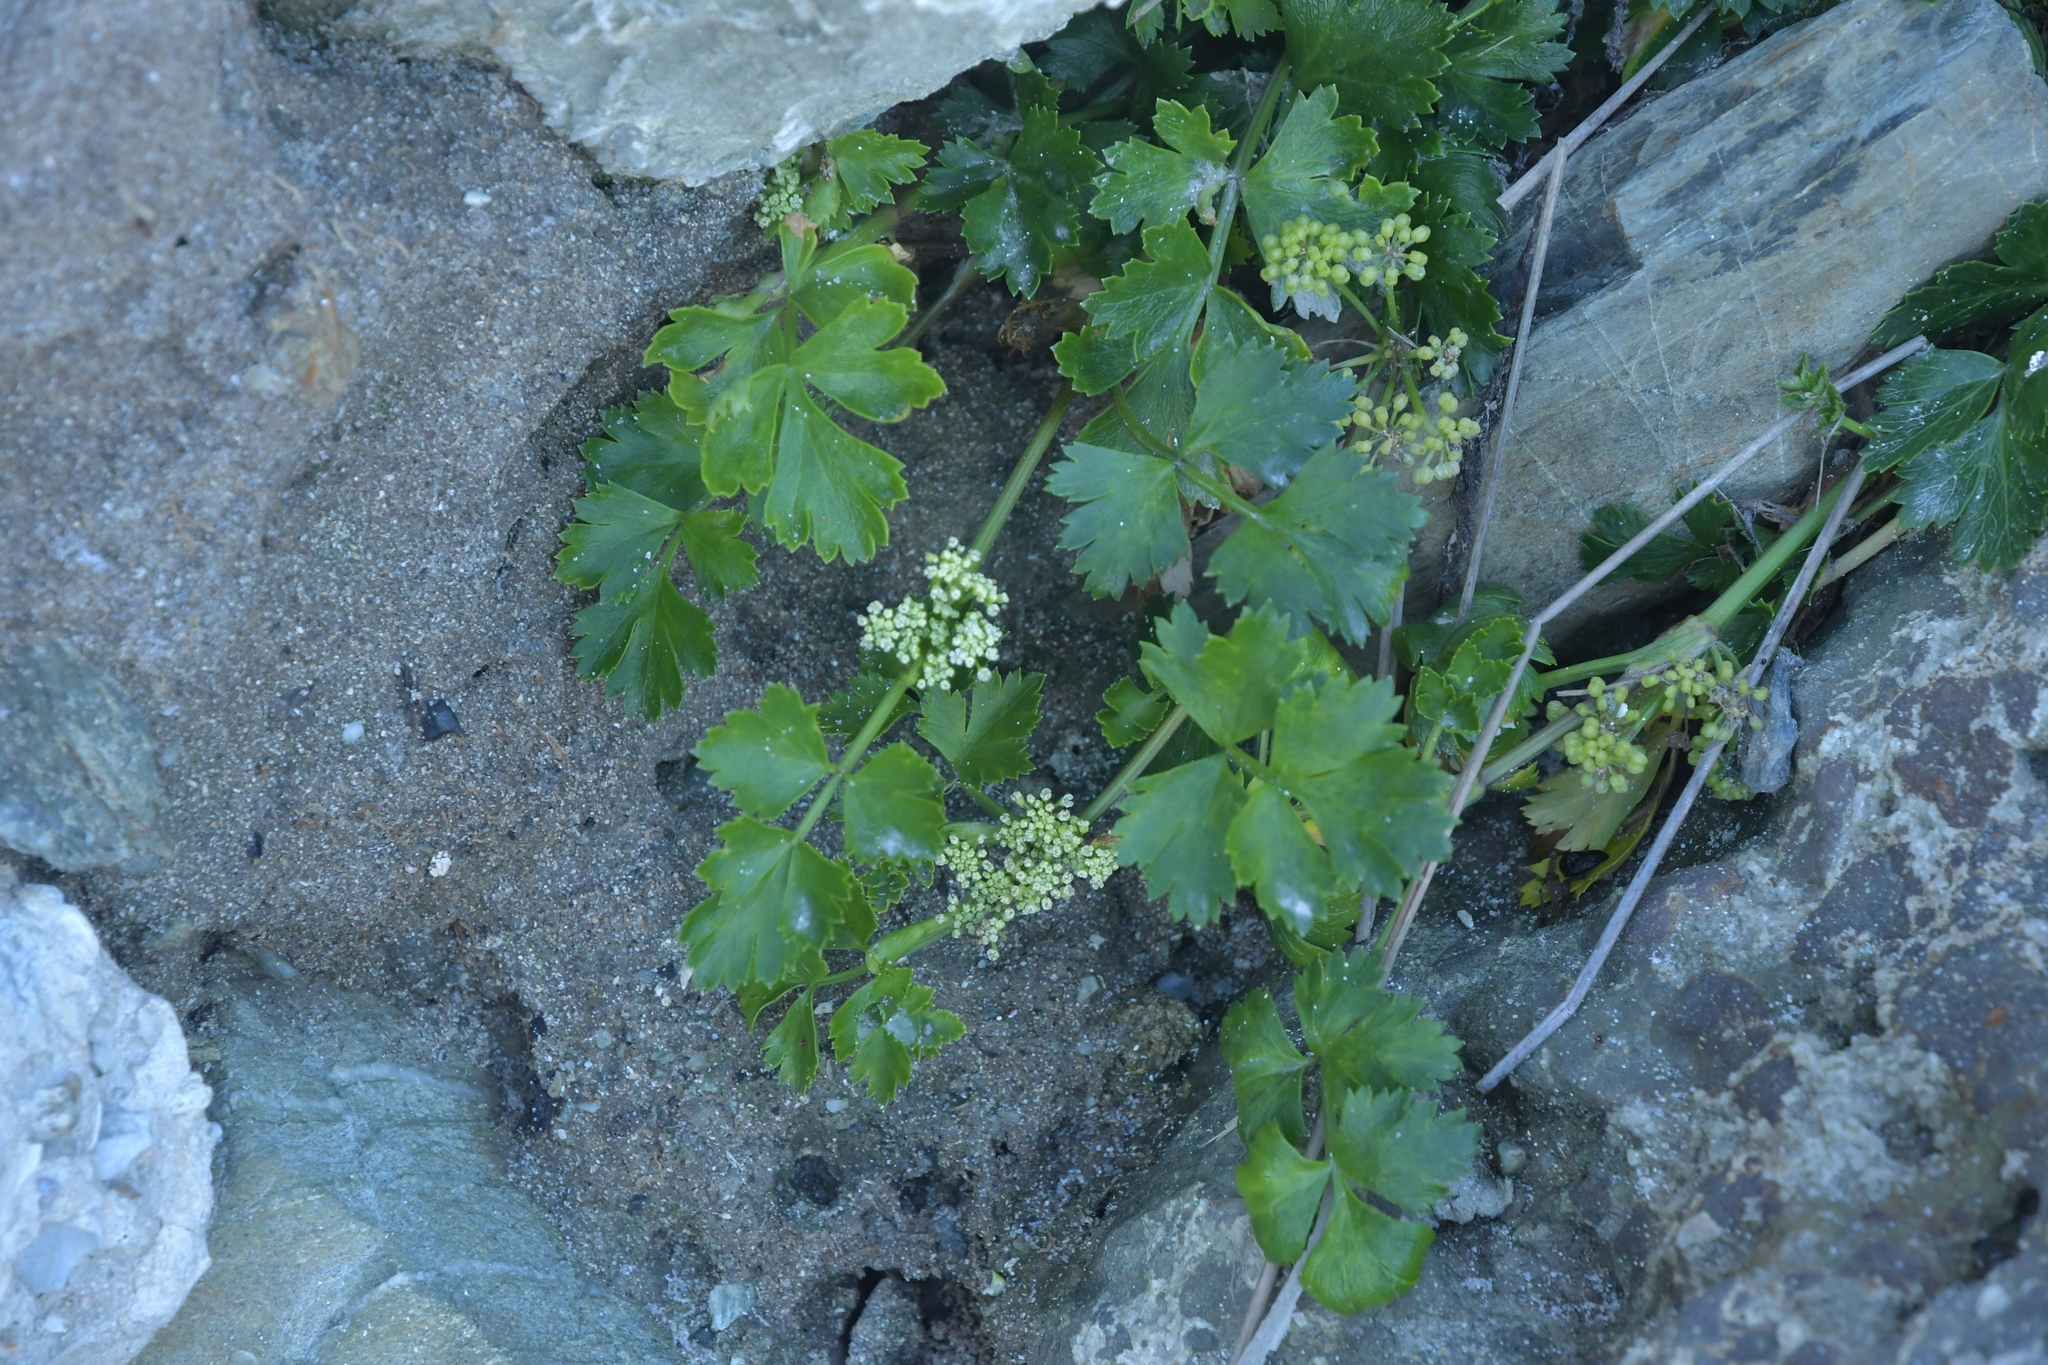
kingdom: Plantae
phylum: Tracheophyta
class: Magnoliopsida
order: Apiales
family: Apiaceae
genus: Apium
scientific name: Apium prostratum
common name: Prostrate marshwort
